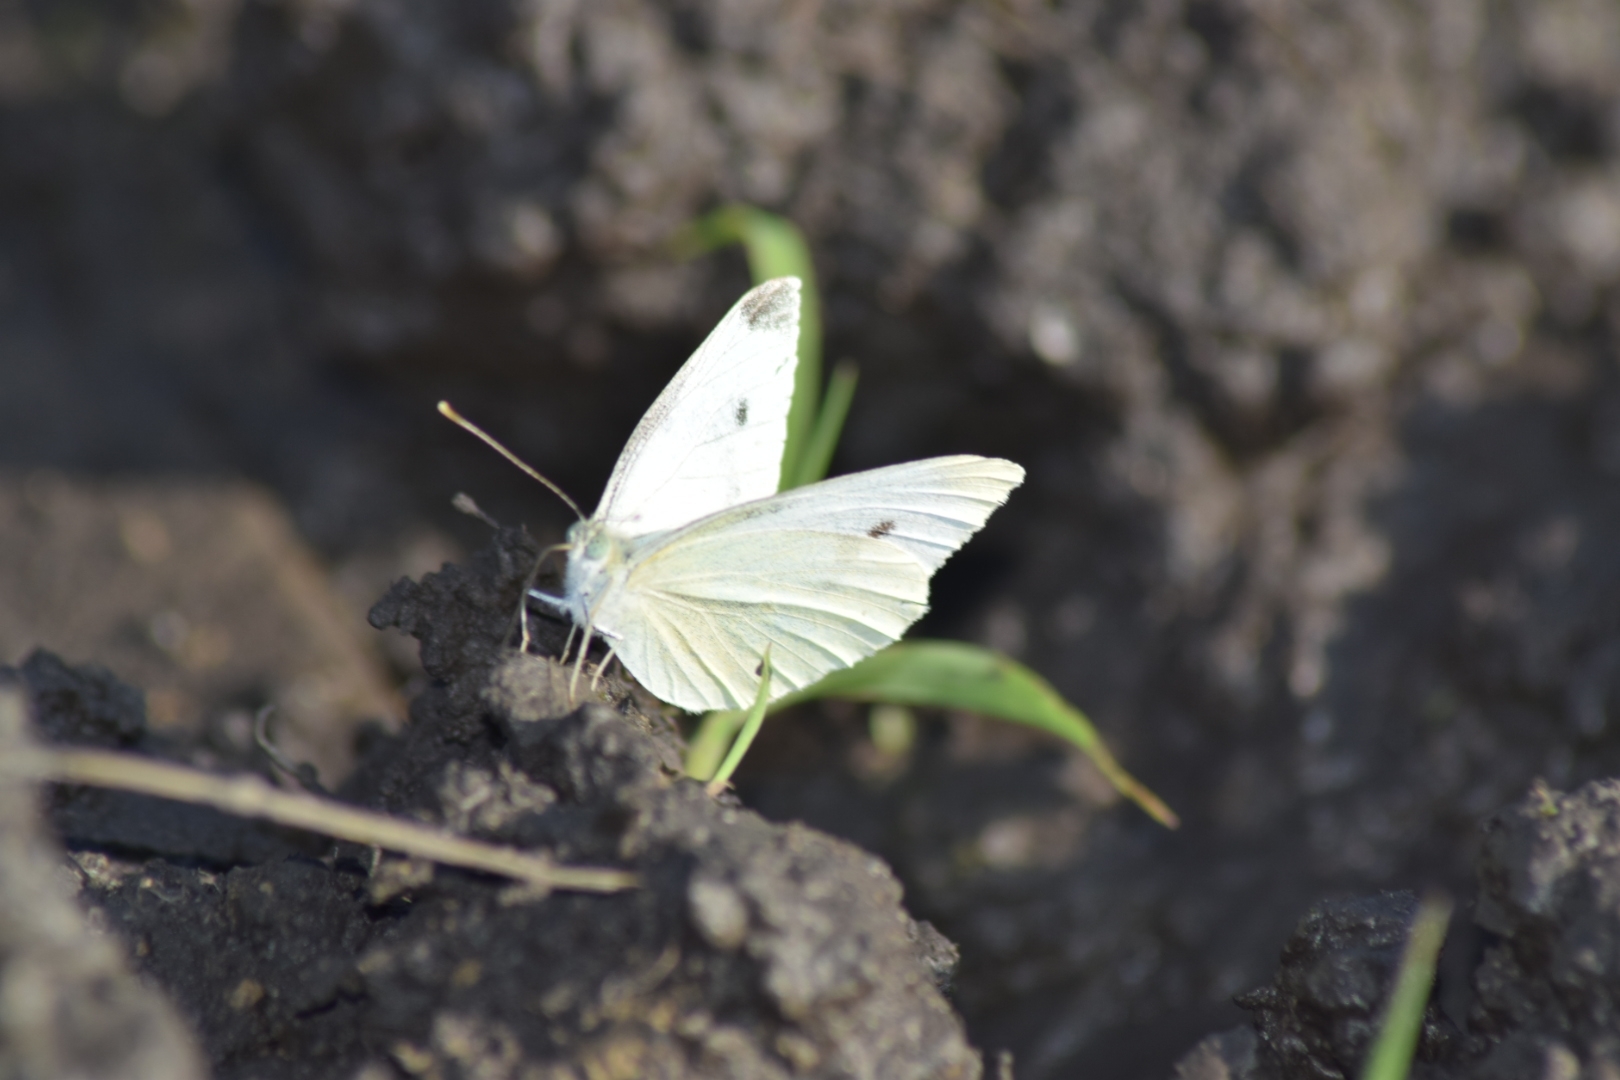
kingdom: Animalia
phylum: Arthropoda
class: Insecta
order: Lepidoptera
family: Pieridae
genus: Pieris
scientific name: Pieris rapae
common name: Small white
